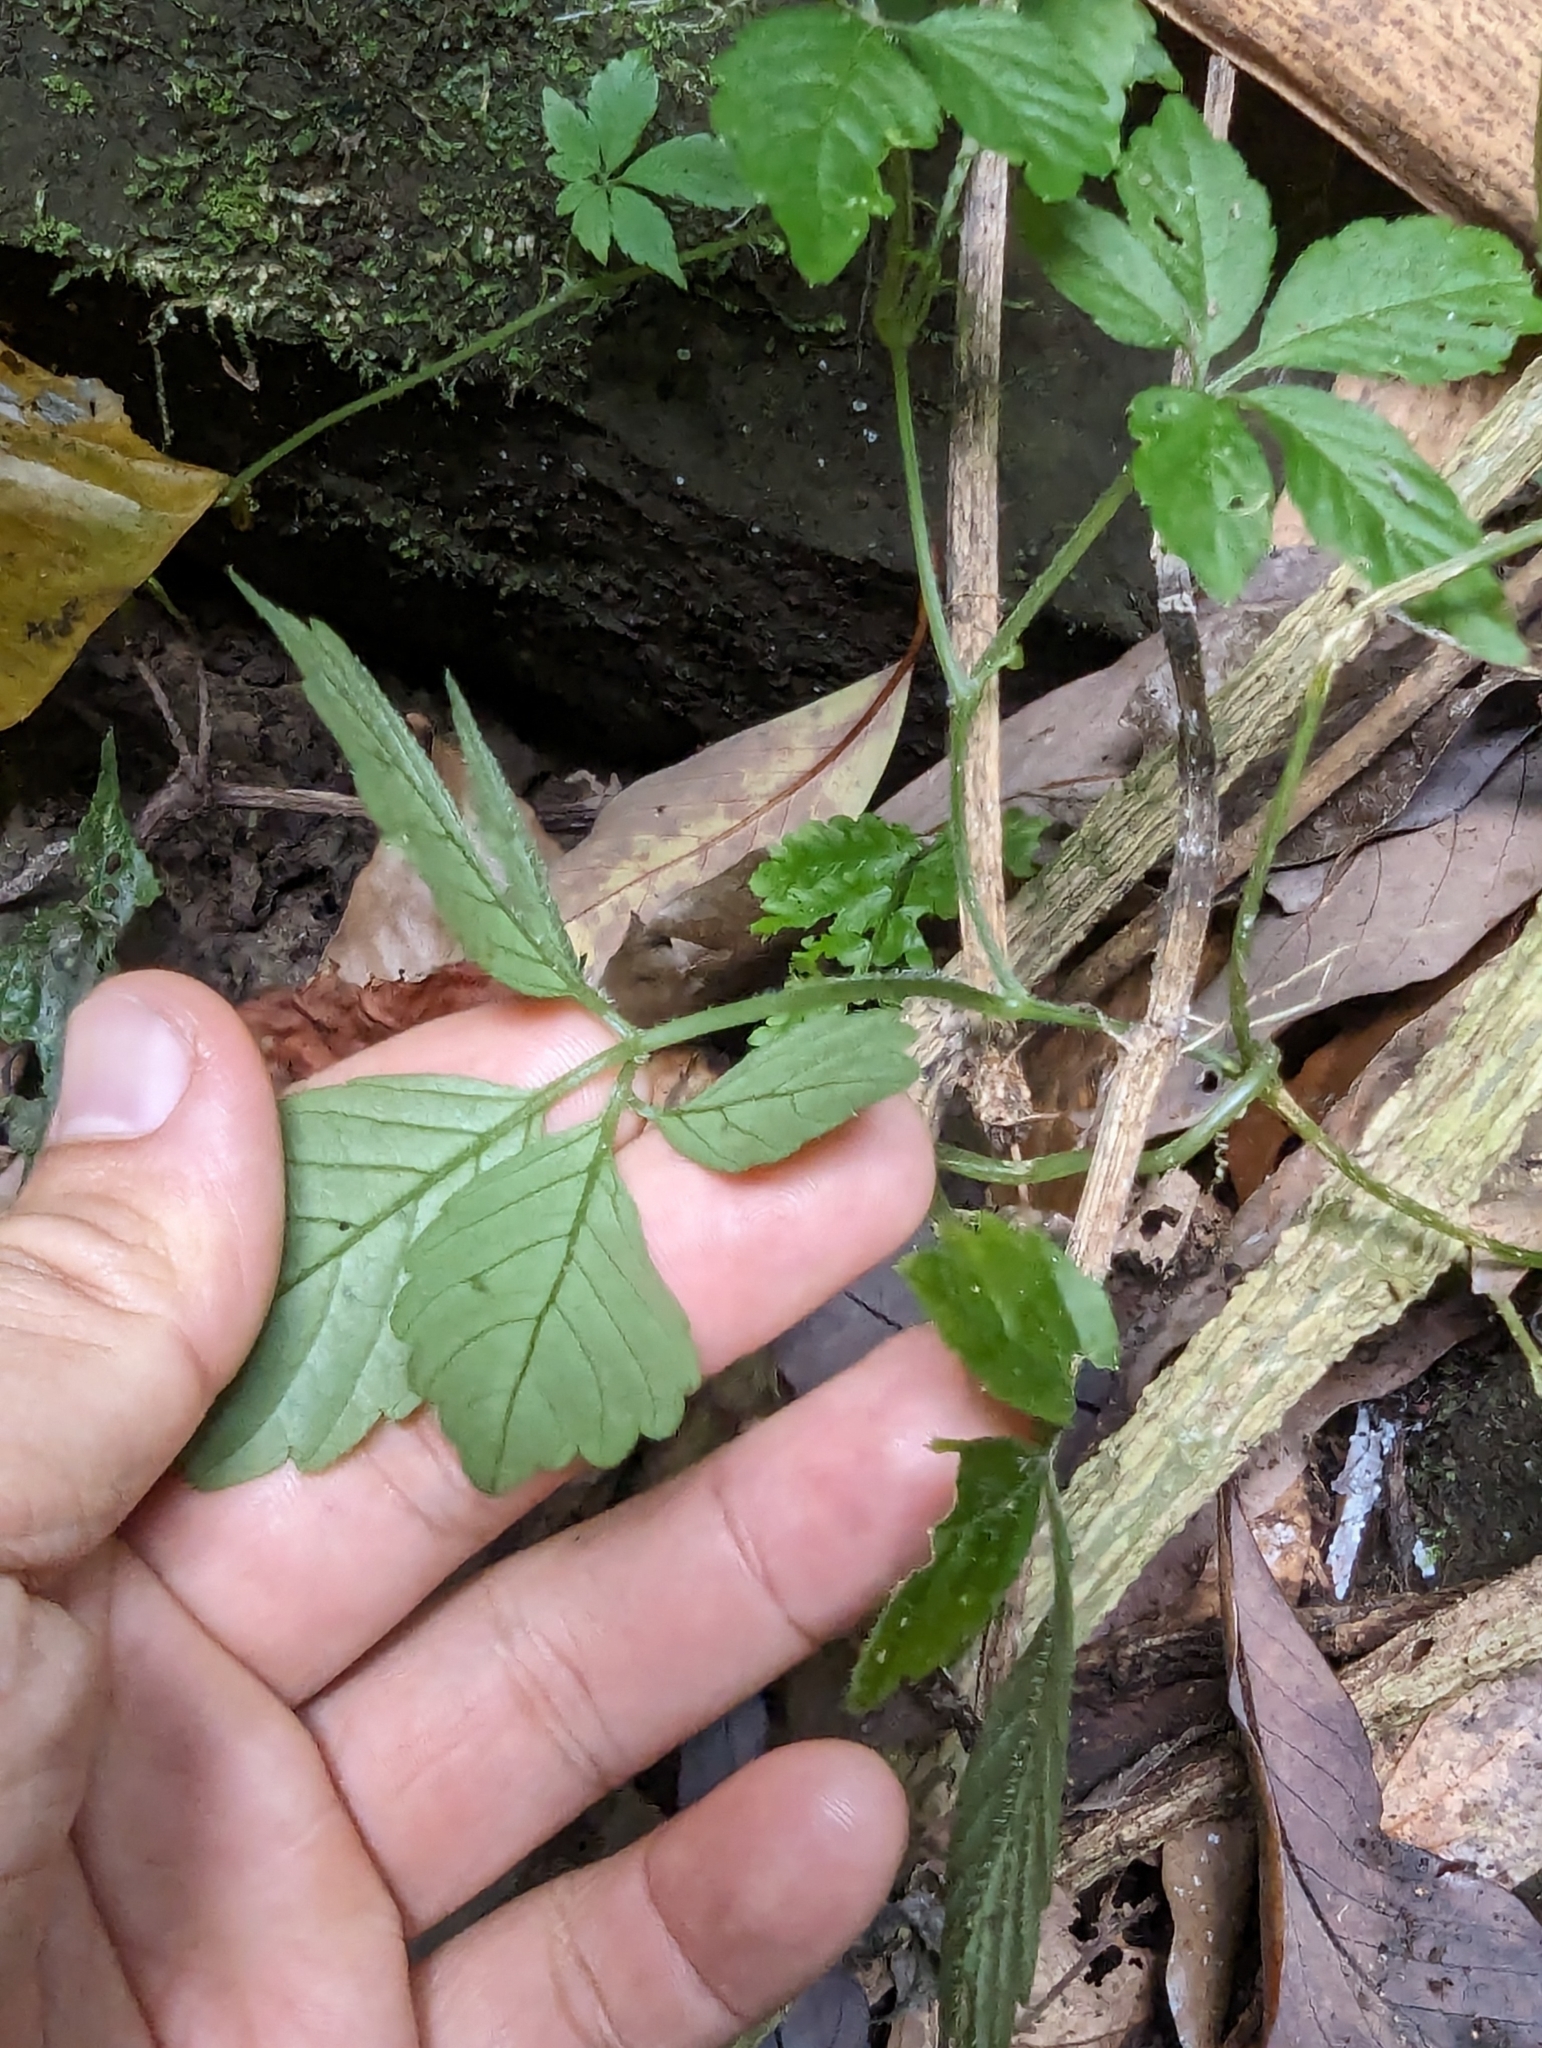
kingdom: Plantae
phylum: Tracheophyta
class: Magnoliopsida
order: Cucurbitales
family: Cucurbitaceae
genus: Gynostemma
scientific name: Gynostemma pentaphyllum
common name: Gynostemma
